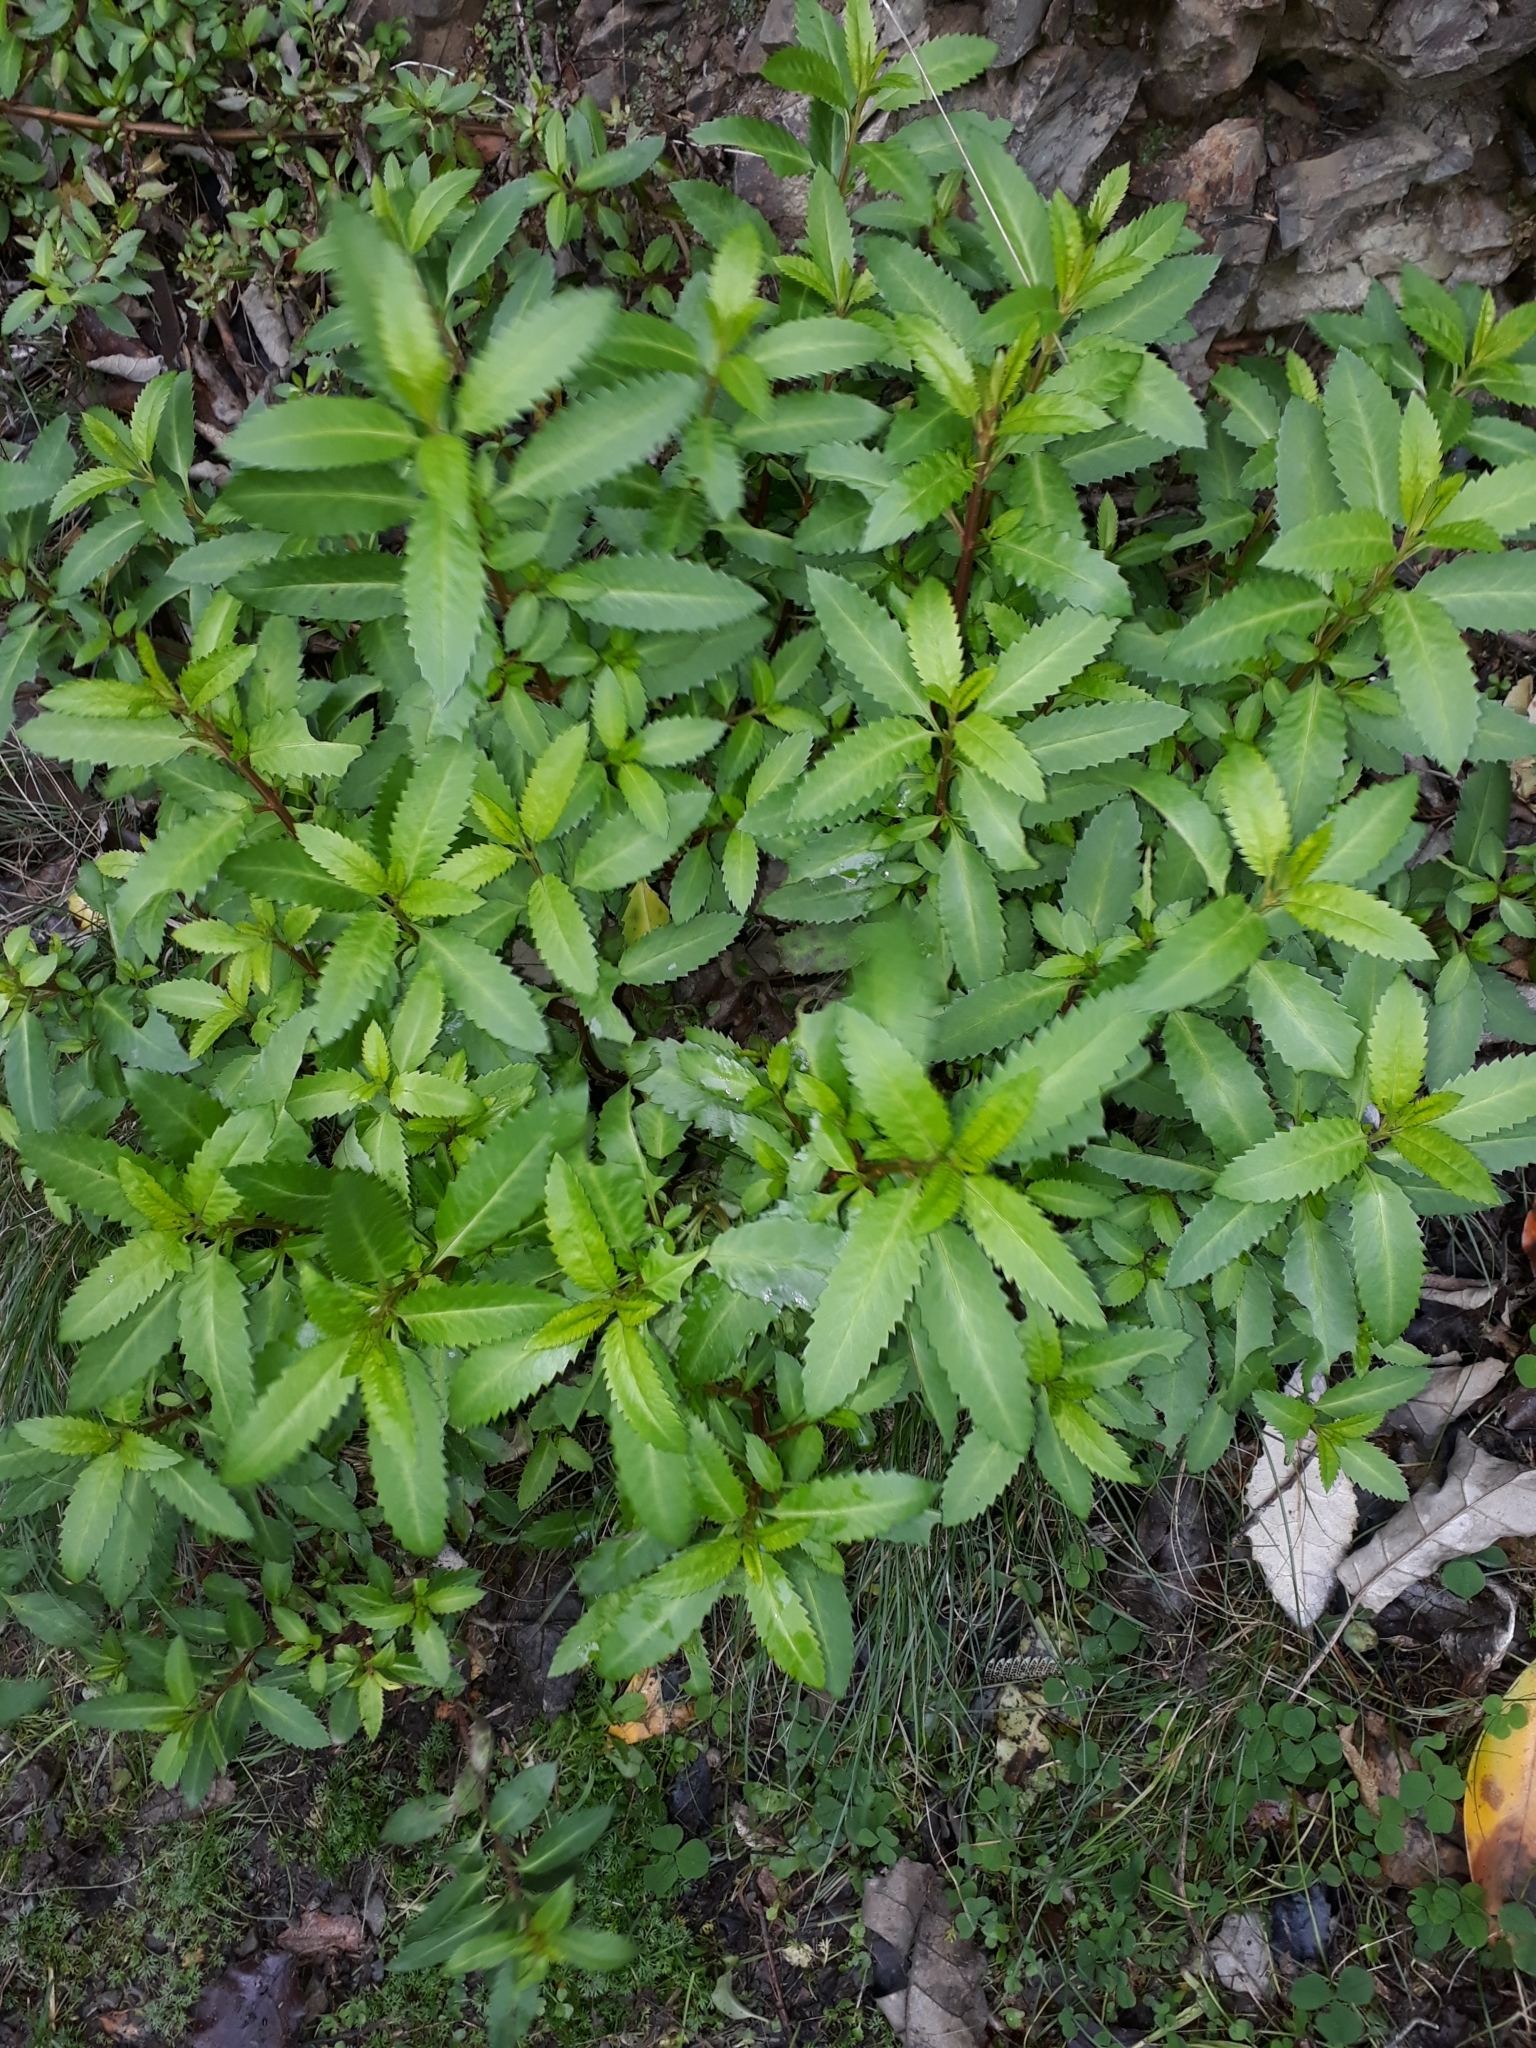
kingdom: Plantae
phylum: Tracheophyta
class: Magnoliopsida
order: Saxifragales
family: Haloragaceae
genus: Haloragis
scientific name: Haloragis erecta
